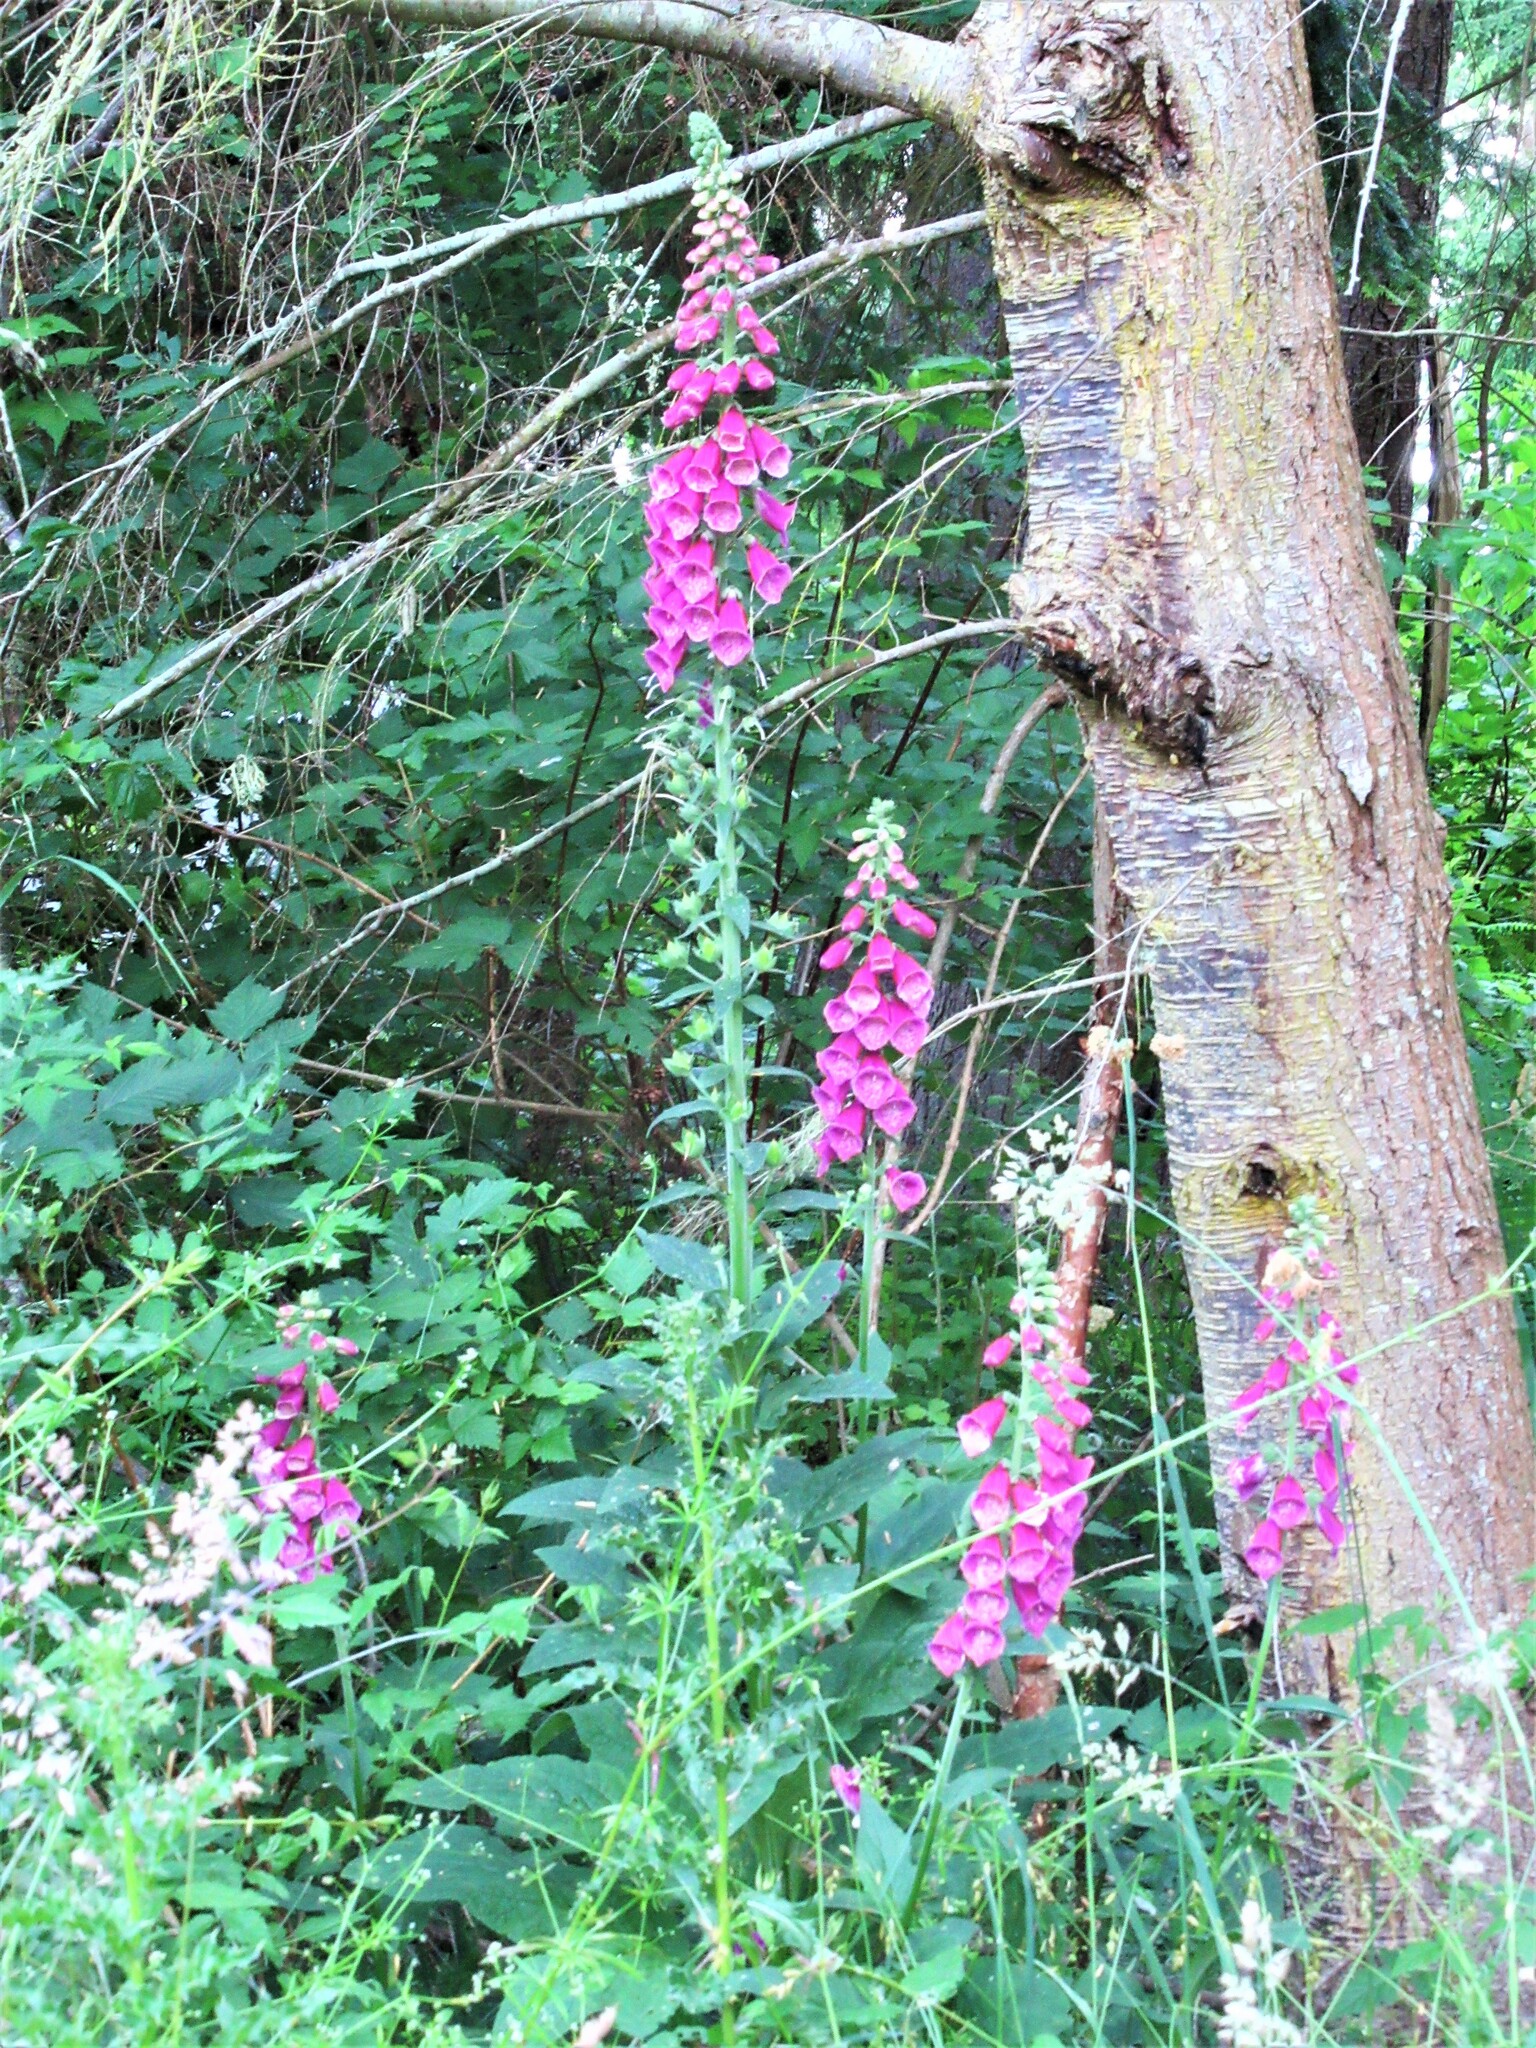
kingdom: Plantae
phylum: Tracheophyta
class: Magnoliopsida
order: Lamiales
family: Plantaginaceae
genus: Digitalis
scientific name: Digitalis purpurea
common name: Foxglove
